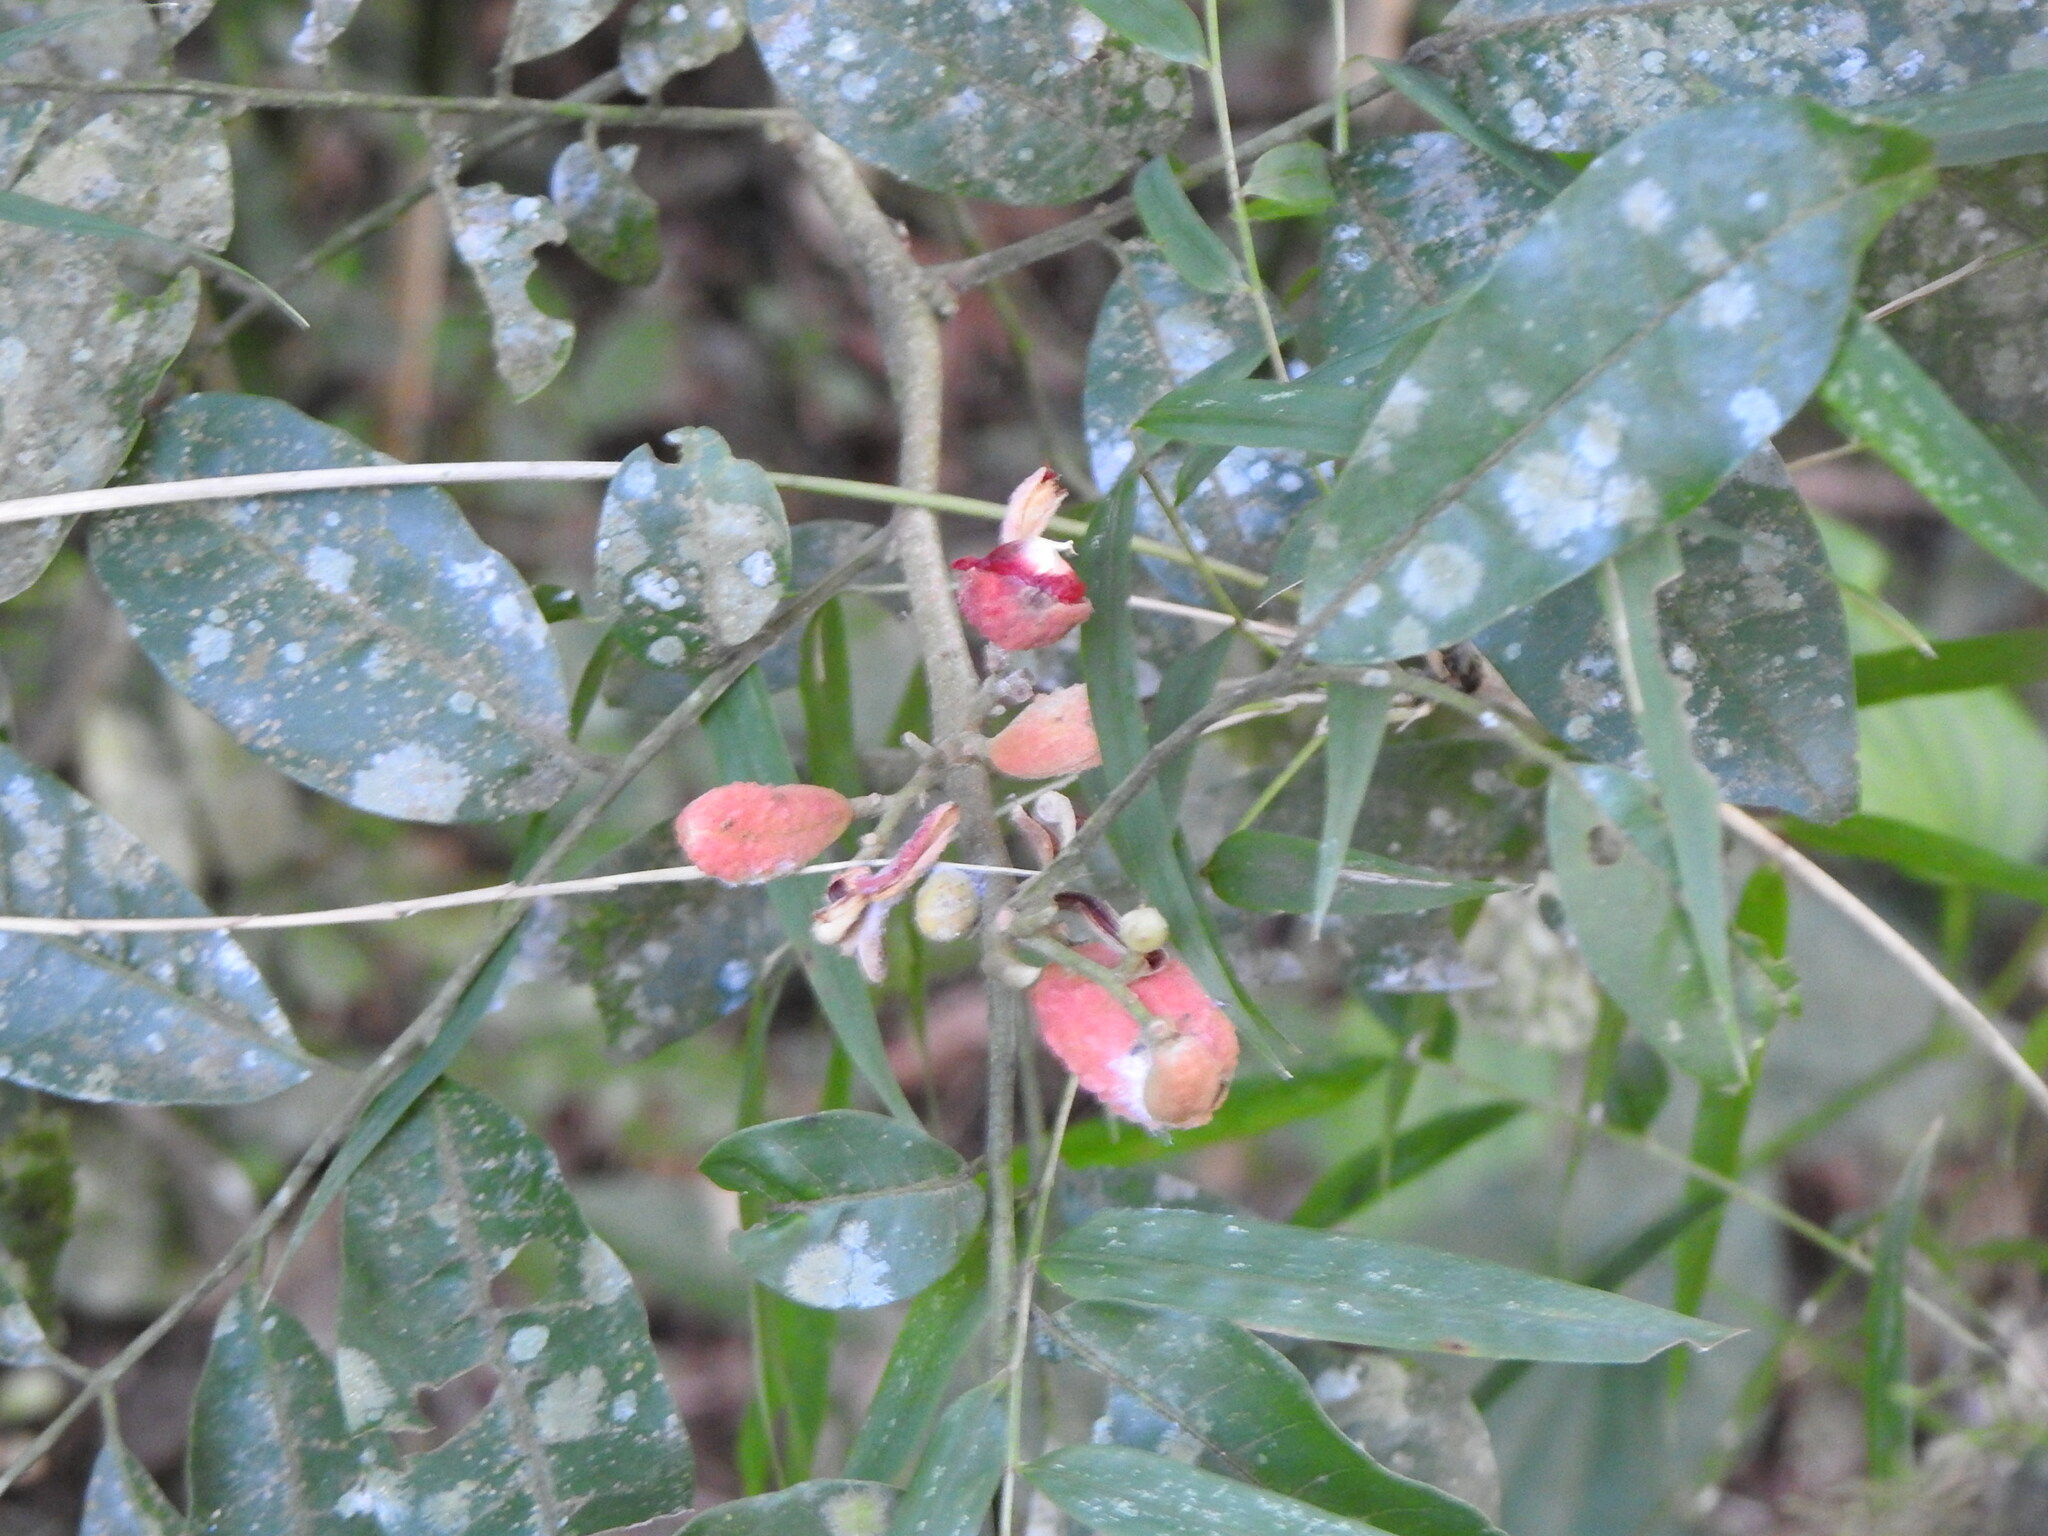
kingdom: Plantae
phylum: Tracheophyta
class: Magnoliopsida
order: Sapindales
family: Meliaceae
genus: Trichilia
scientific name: Trichilia catigua
